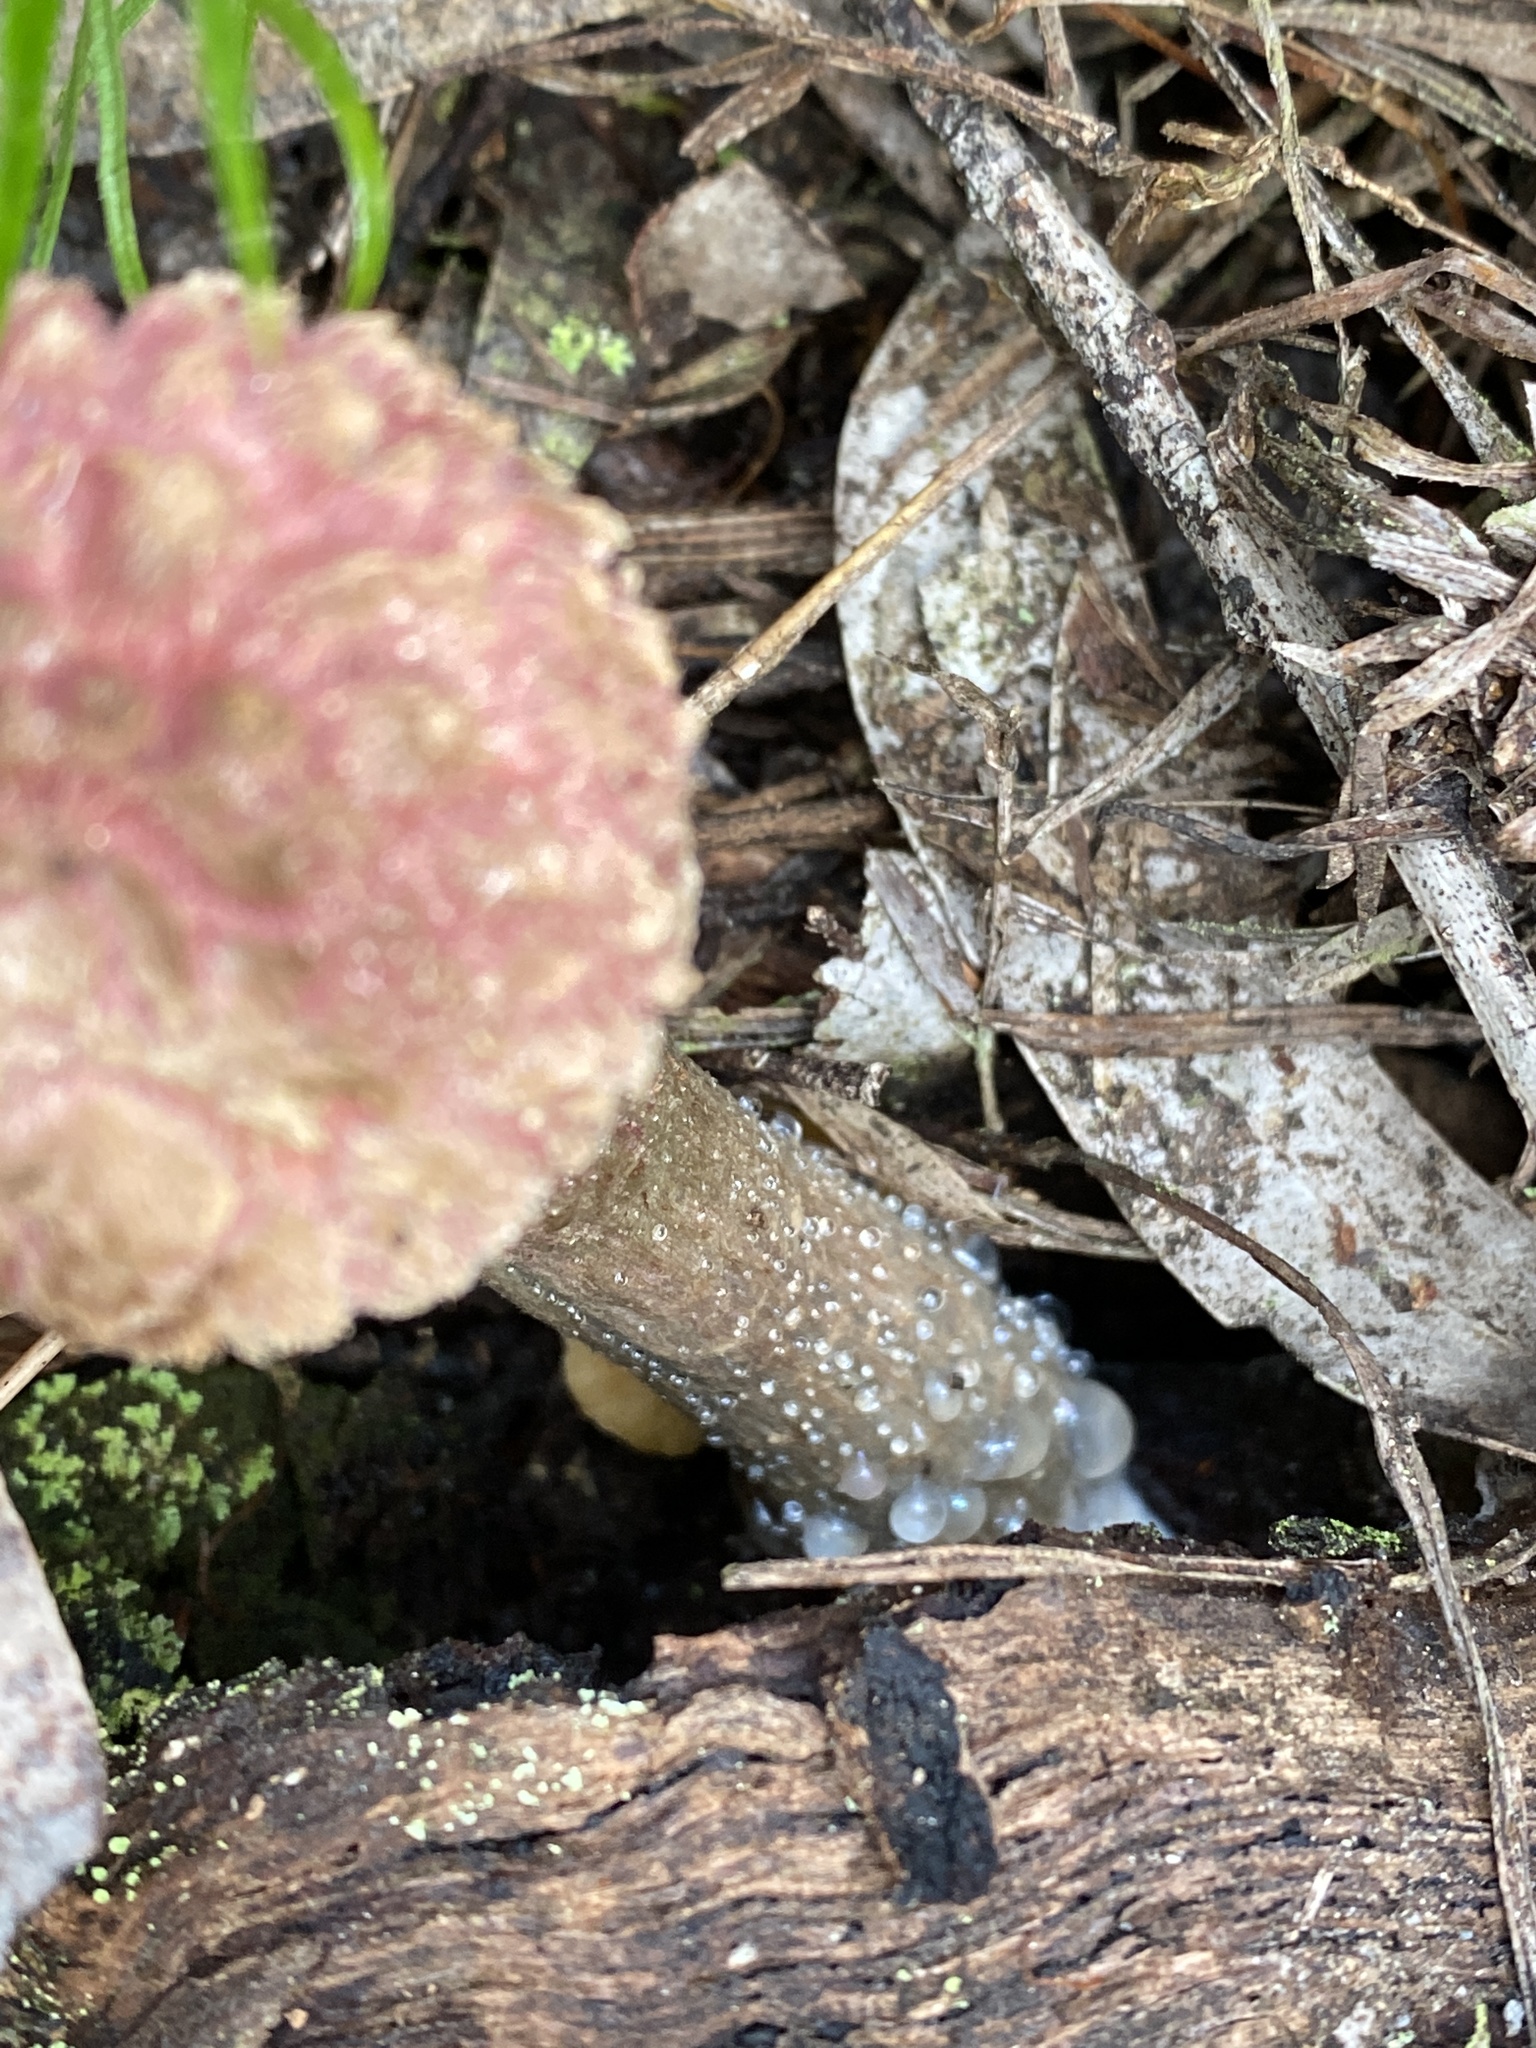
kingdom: Fungi
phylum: Basidiomycota
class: Agaricomycetes
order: Boletales
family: Boletaceae
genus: Boletellus
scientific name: Boletellus emodensis
